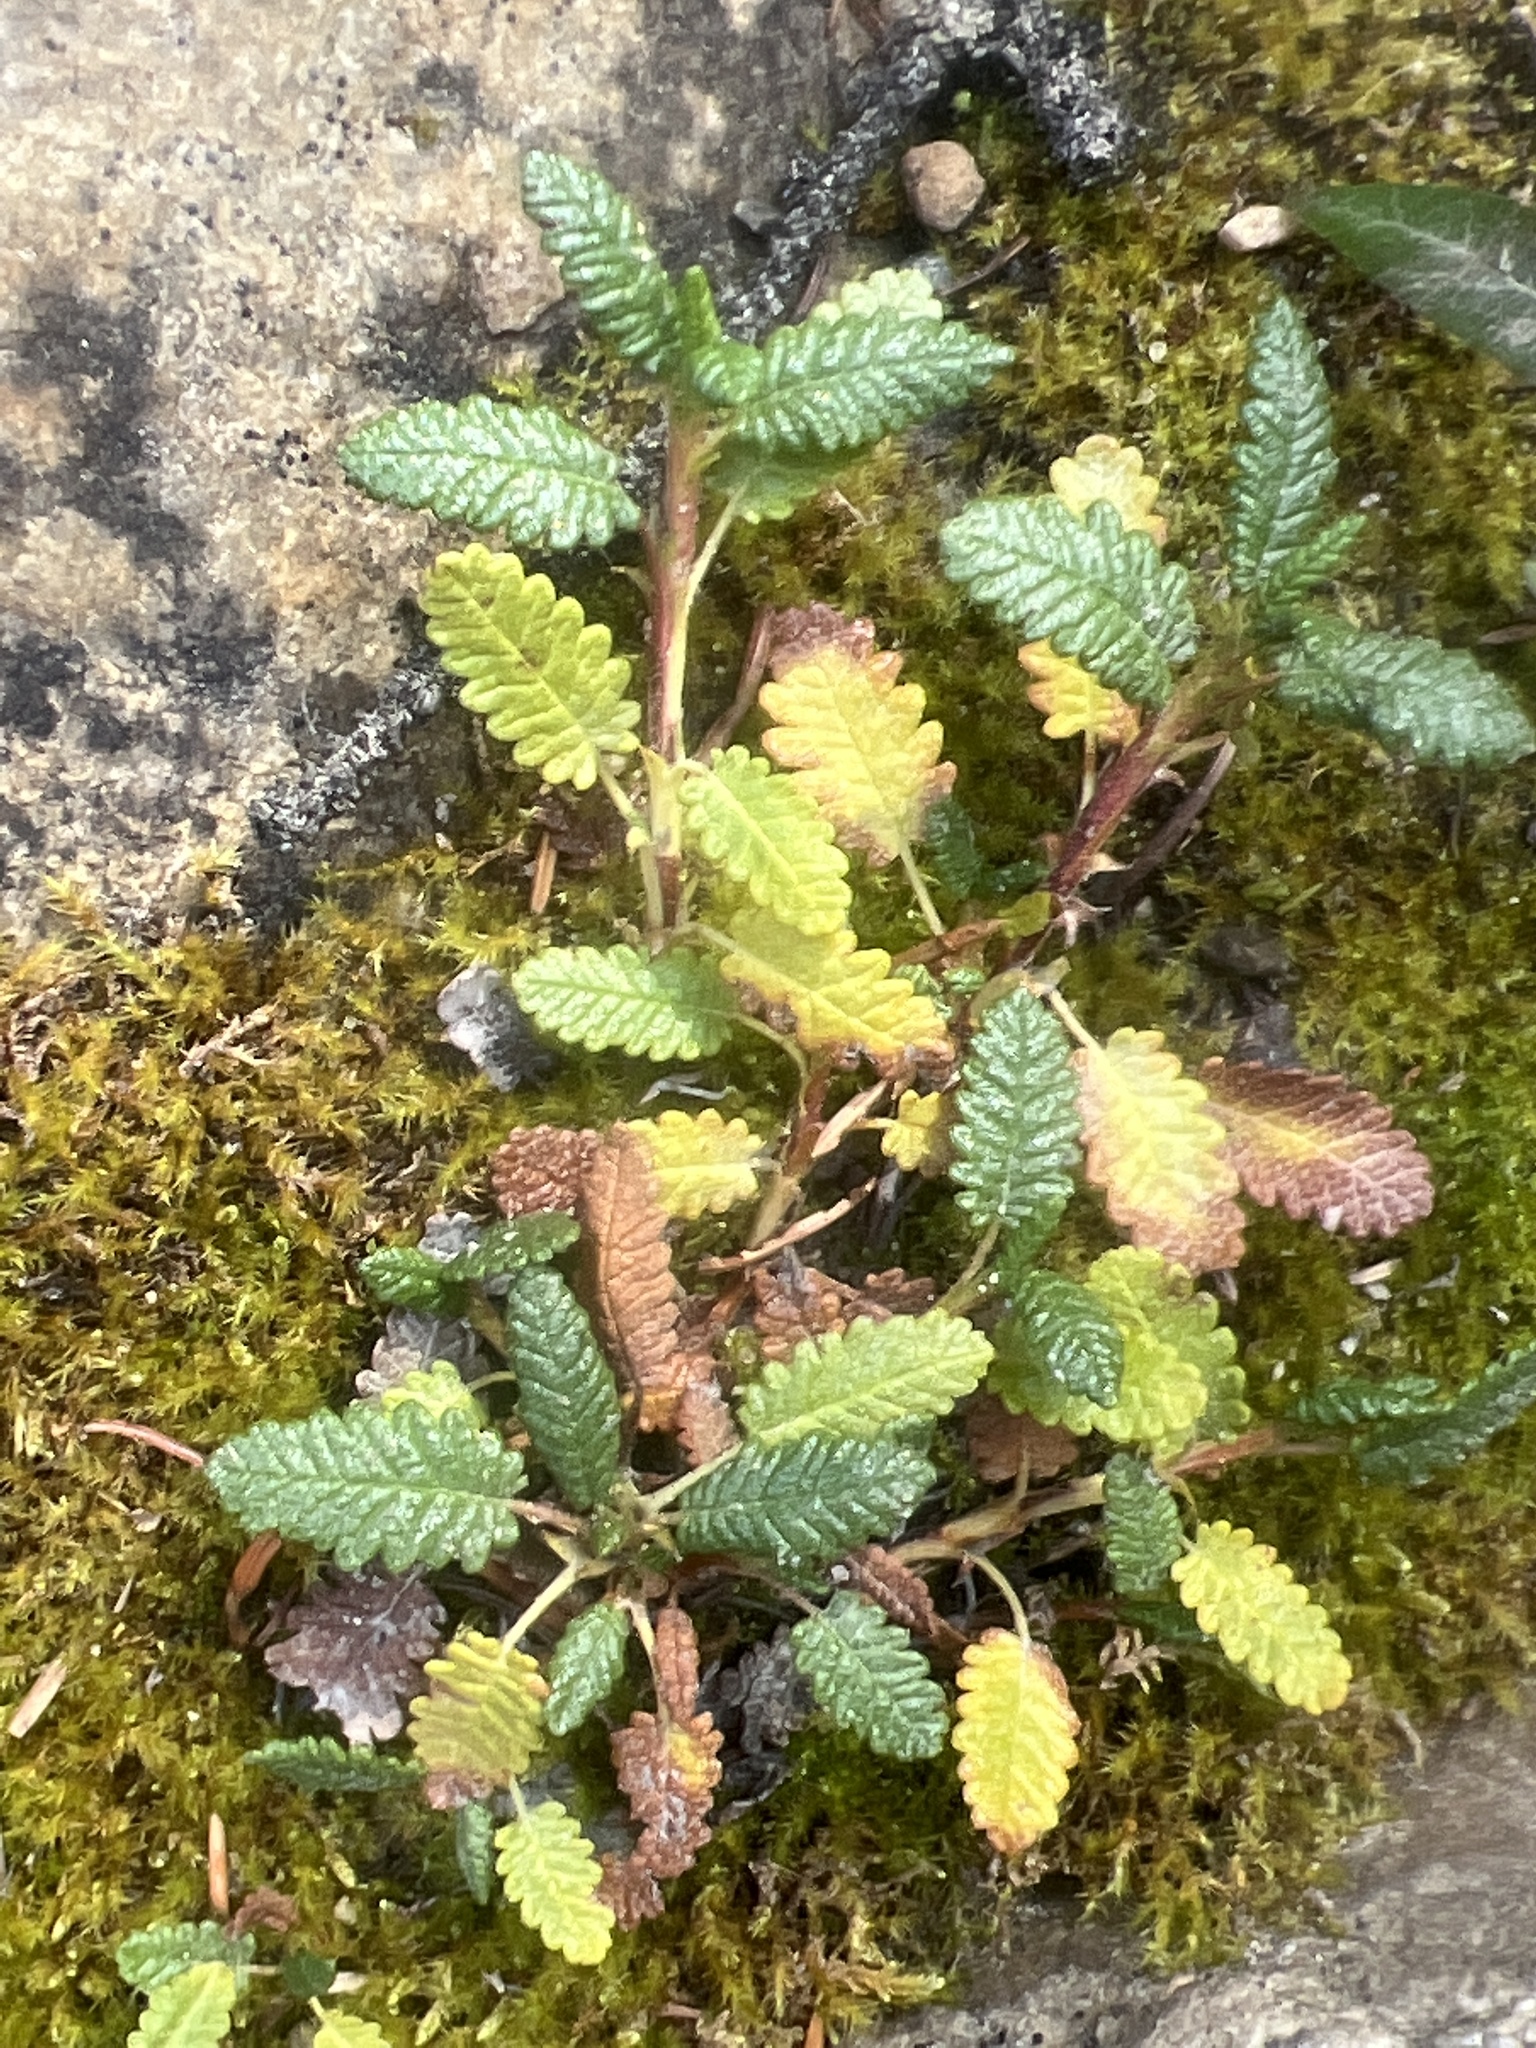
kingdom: Plantae
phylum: Tracheophyta
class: Magnoliopsida
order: Rosales
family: Rosaceae
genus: Dryas
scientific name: Dryas octopetala
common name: Eight-petal mountain-avens
